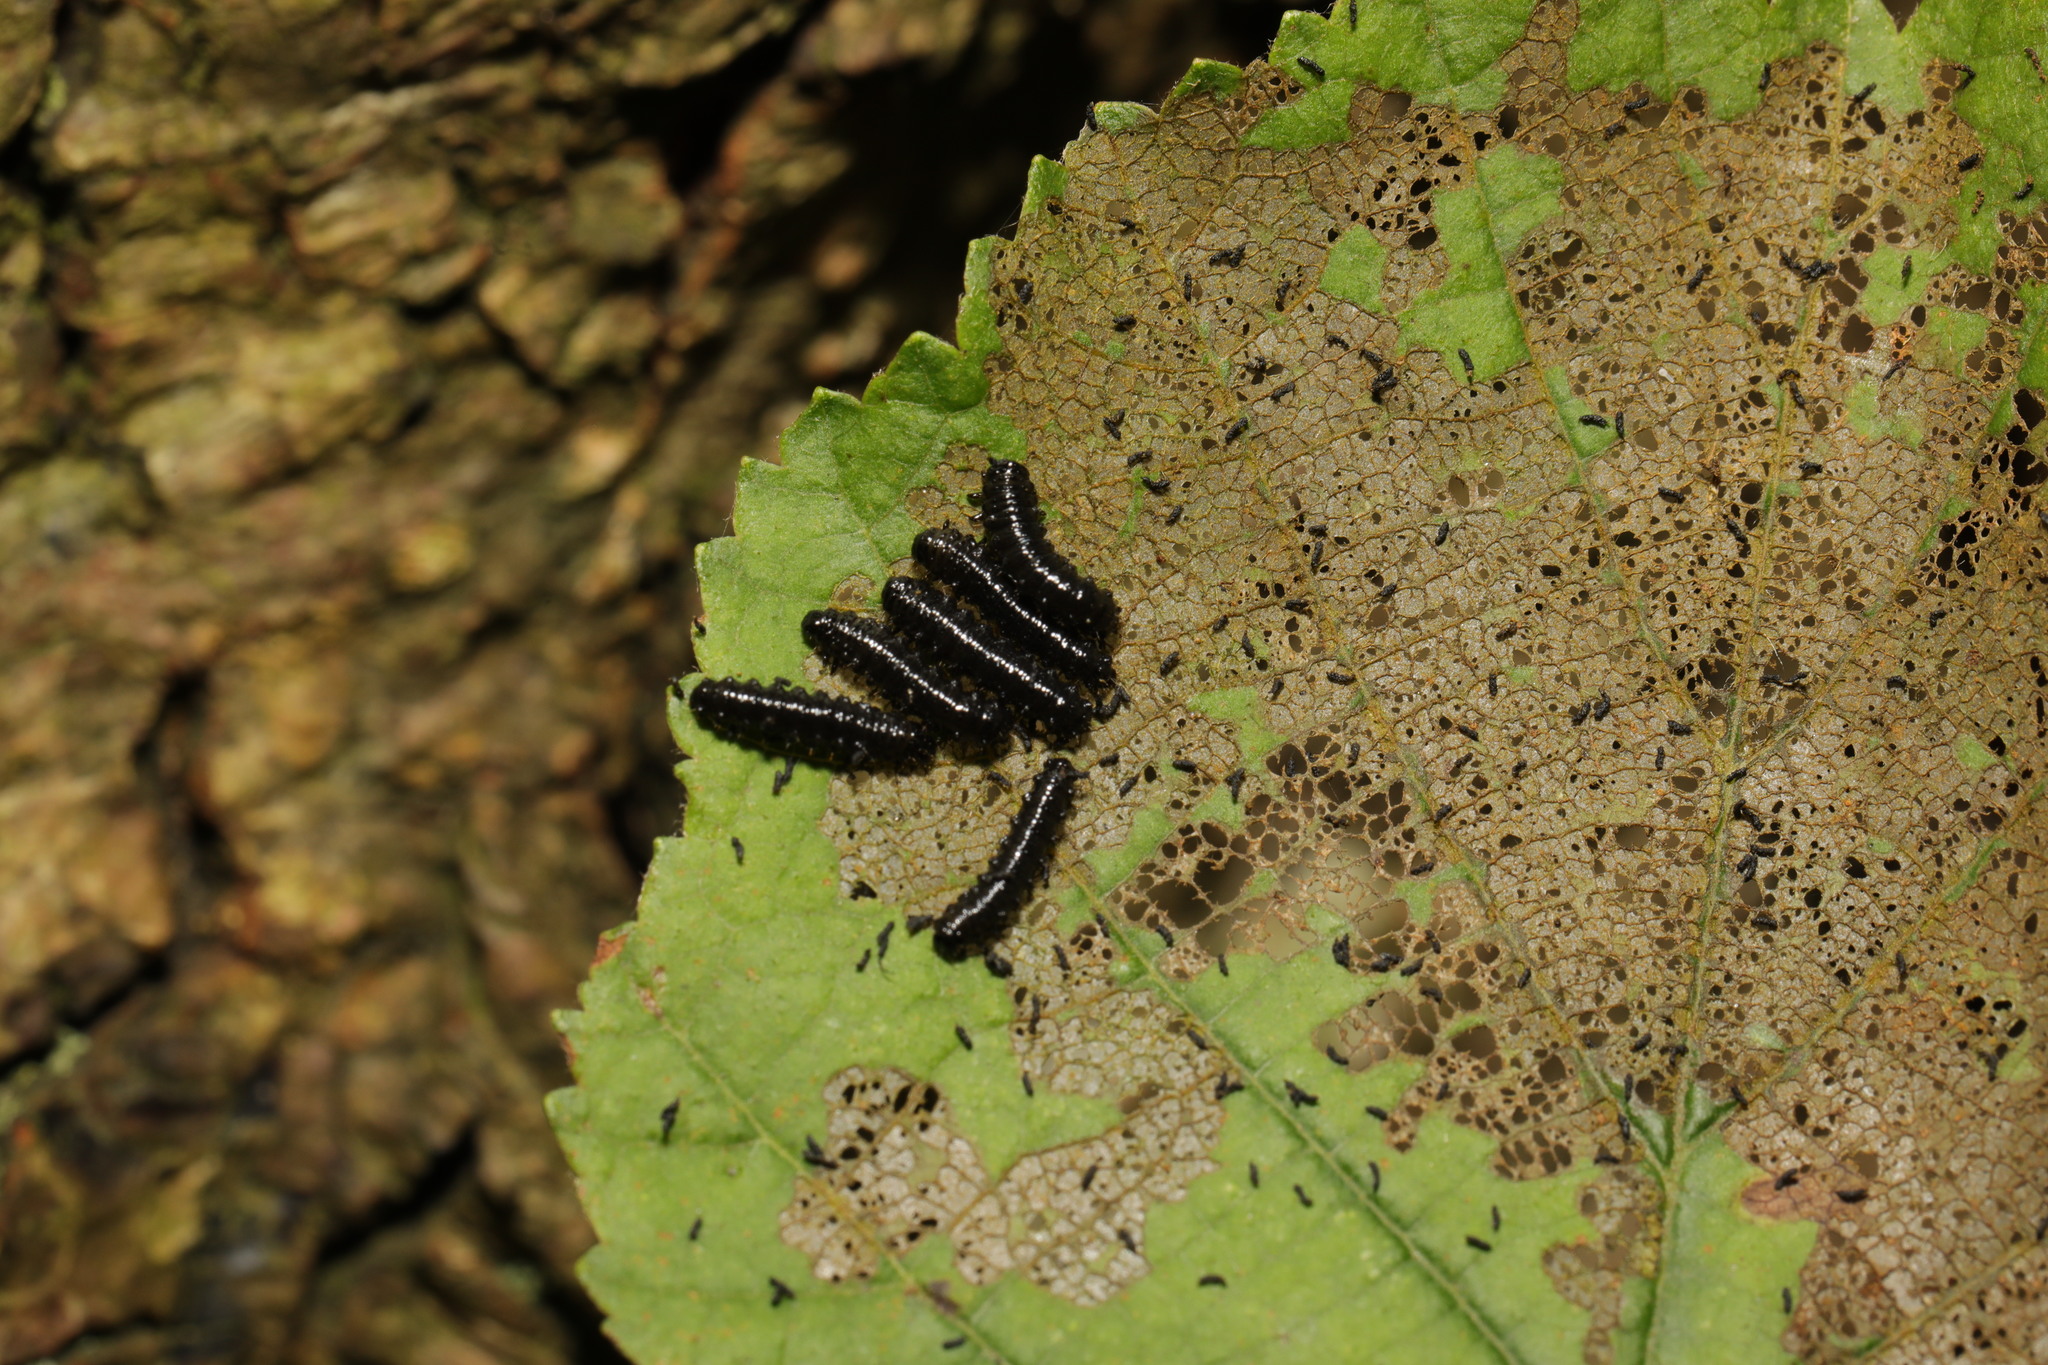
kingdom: Animalia
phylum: Arthropoda
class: Insecta
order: Coleoptera
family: Chrysomelidae
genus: Agelastica
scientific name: Agelastica alni
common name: Alder leaf beetle
